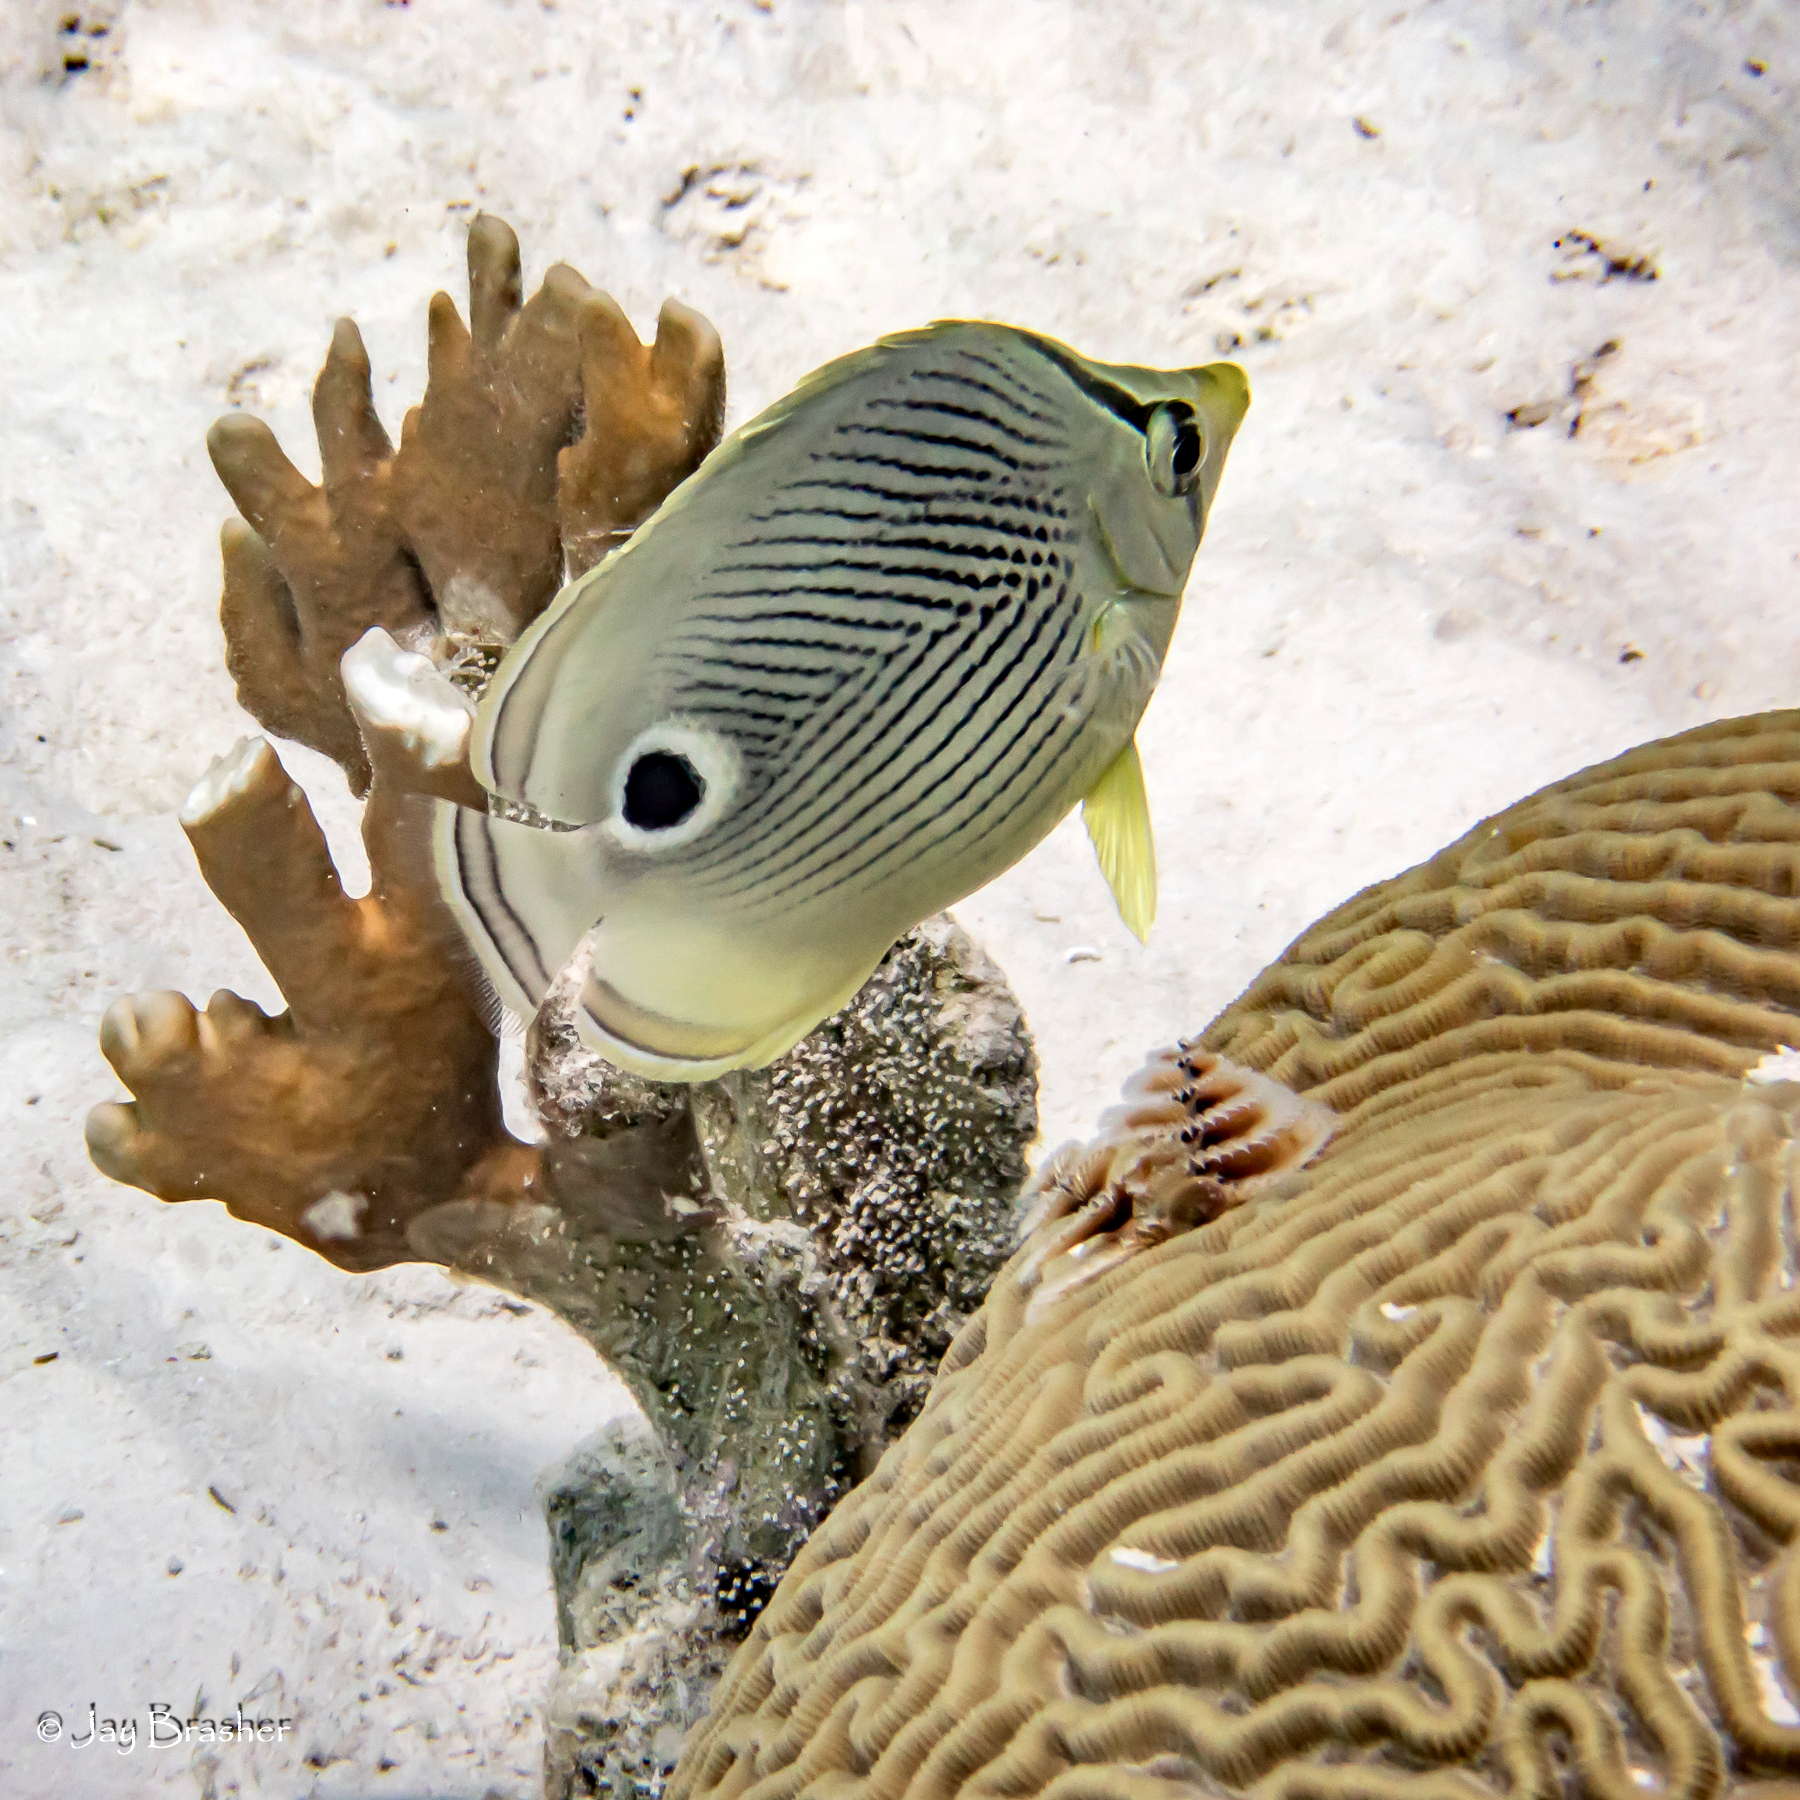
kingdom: Animalia
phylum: Chordata
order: Perciformes
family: Chaetodontidae
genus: Chaetodon
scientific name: Chaetodon capistratus
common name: Kete
